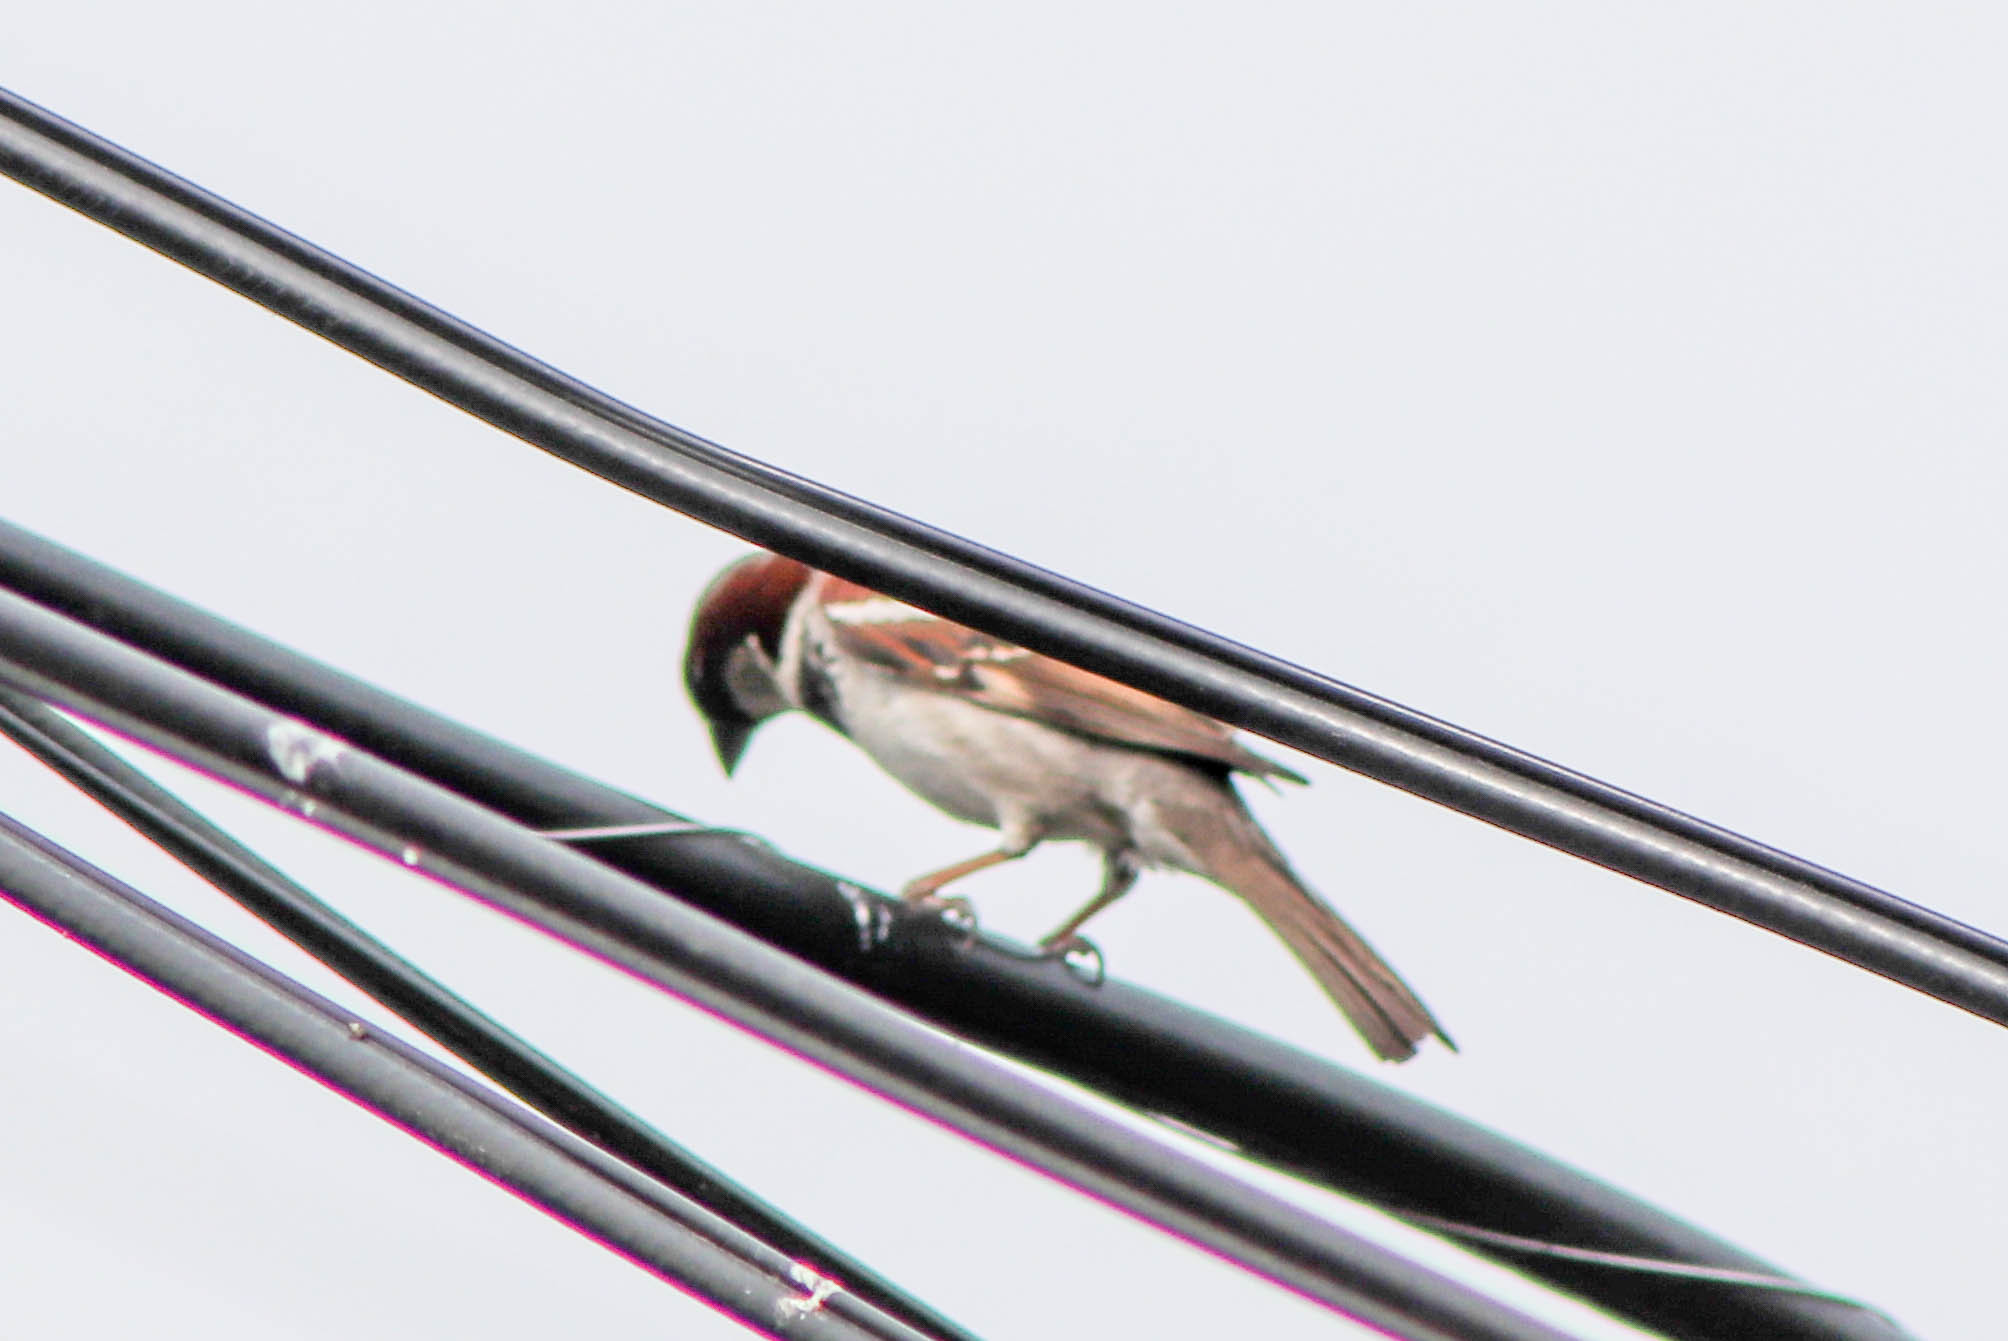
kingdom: Animalia
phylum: Chordata
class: Aves
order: Passeriformes
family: Passeridae
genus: Passer
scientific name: Passer domesticus
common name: House sparrow
